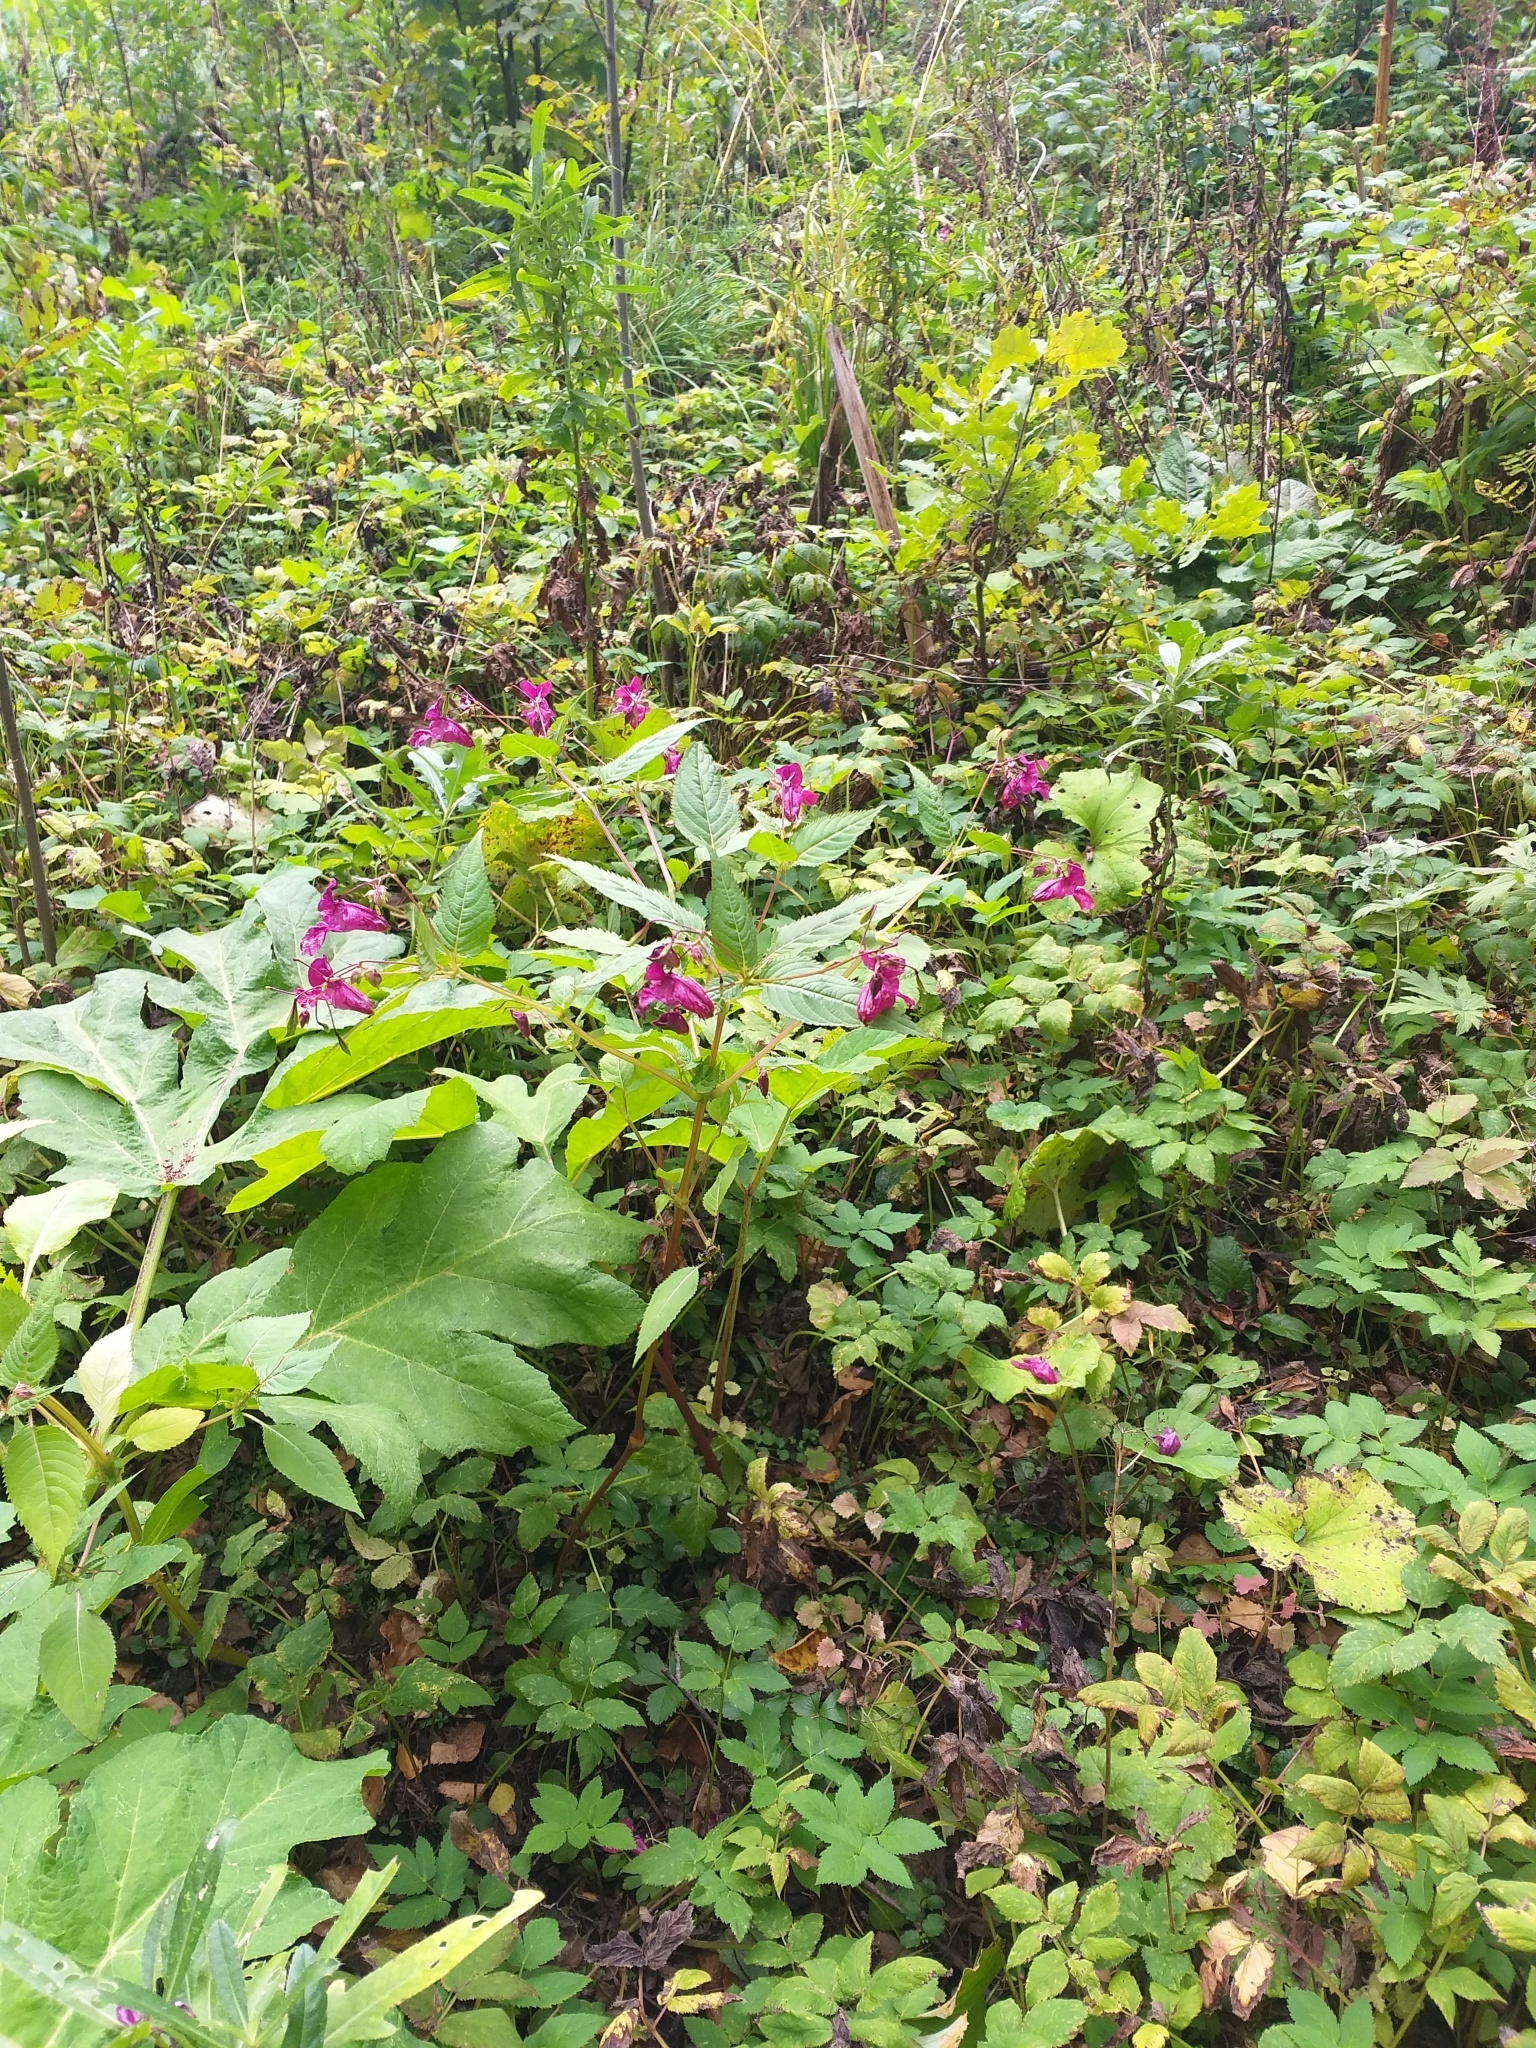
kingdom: Plantae
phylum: Tracheophyta
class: Magnoliopsida
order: Ericales
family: Balsaminaceae
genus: Impatiens
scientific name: Impatiens glandulifera
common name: Himalayan balsam
